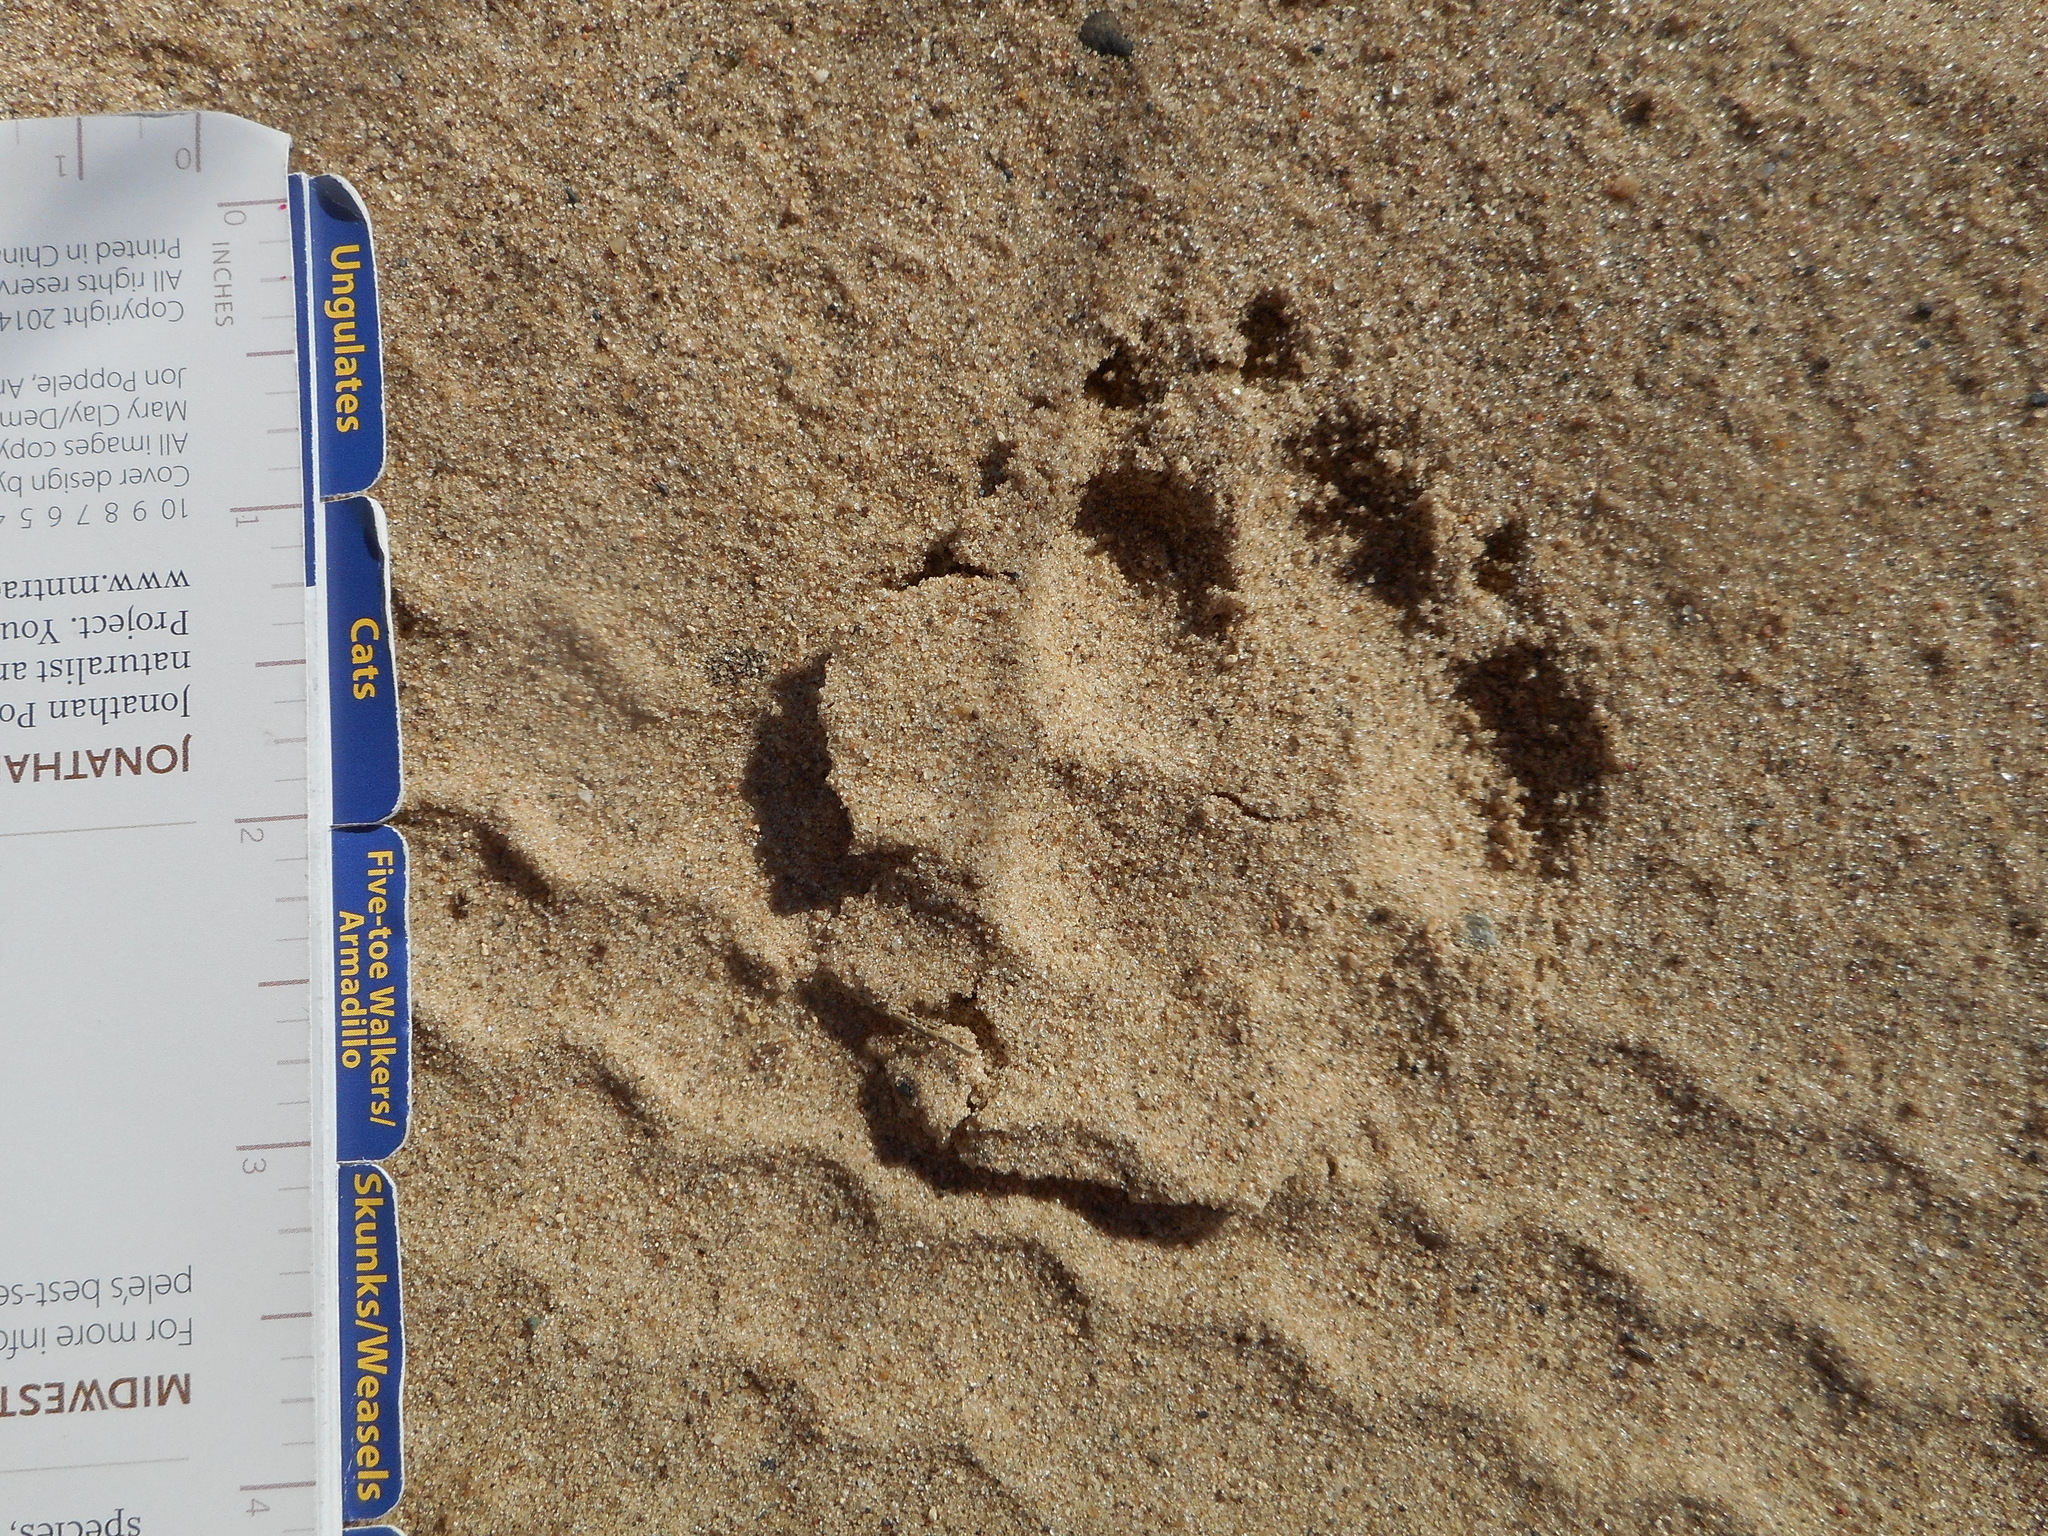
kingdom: Animalia
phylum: Chordata
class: Mammalia
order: Carnivora
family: Canidae
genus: Vulpes
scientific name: Vulpes vulpes
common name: Red fox
